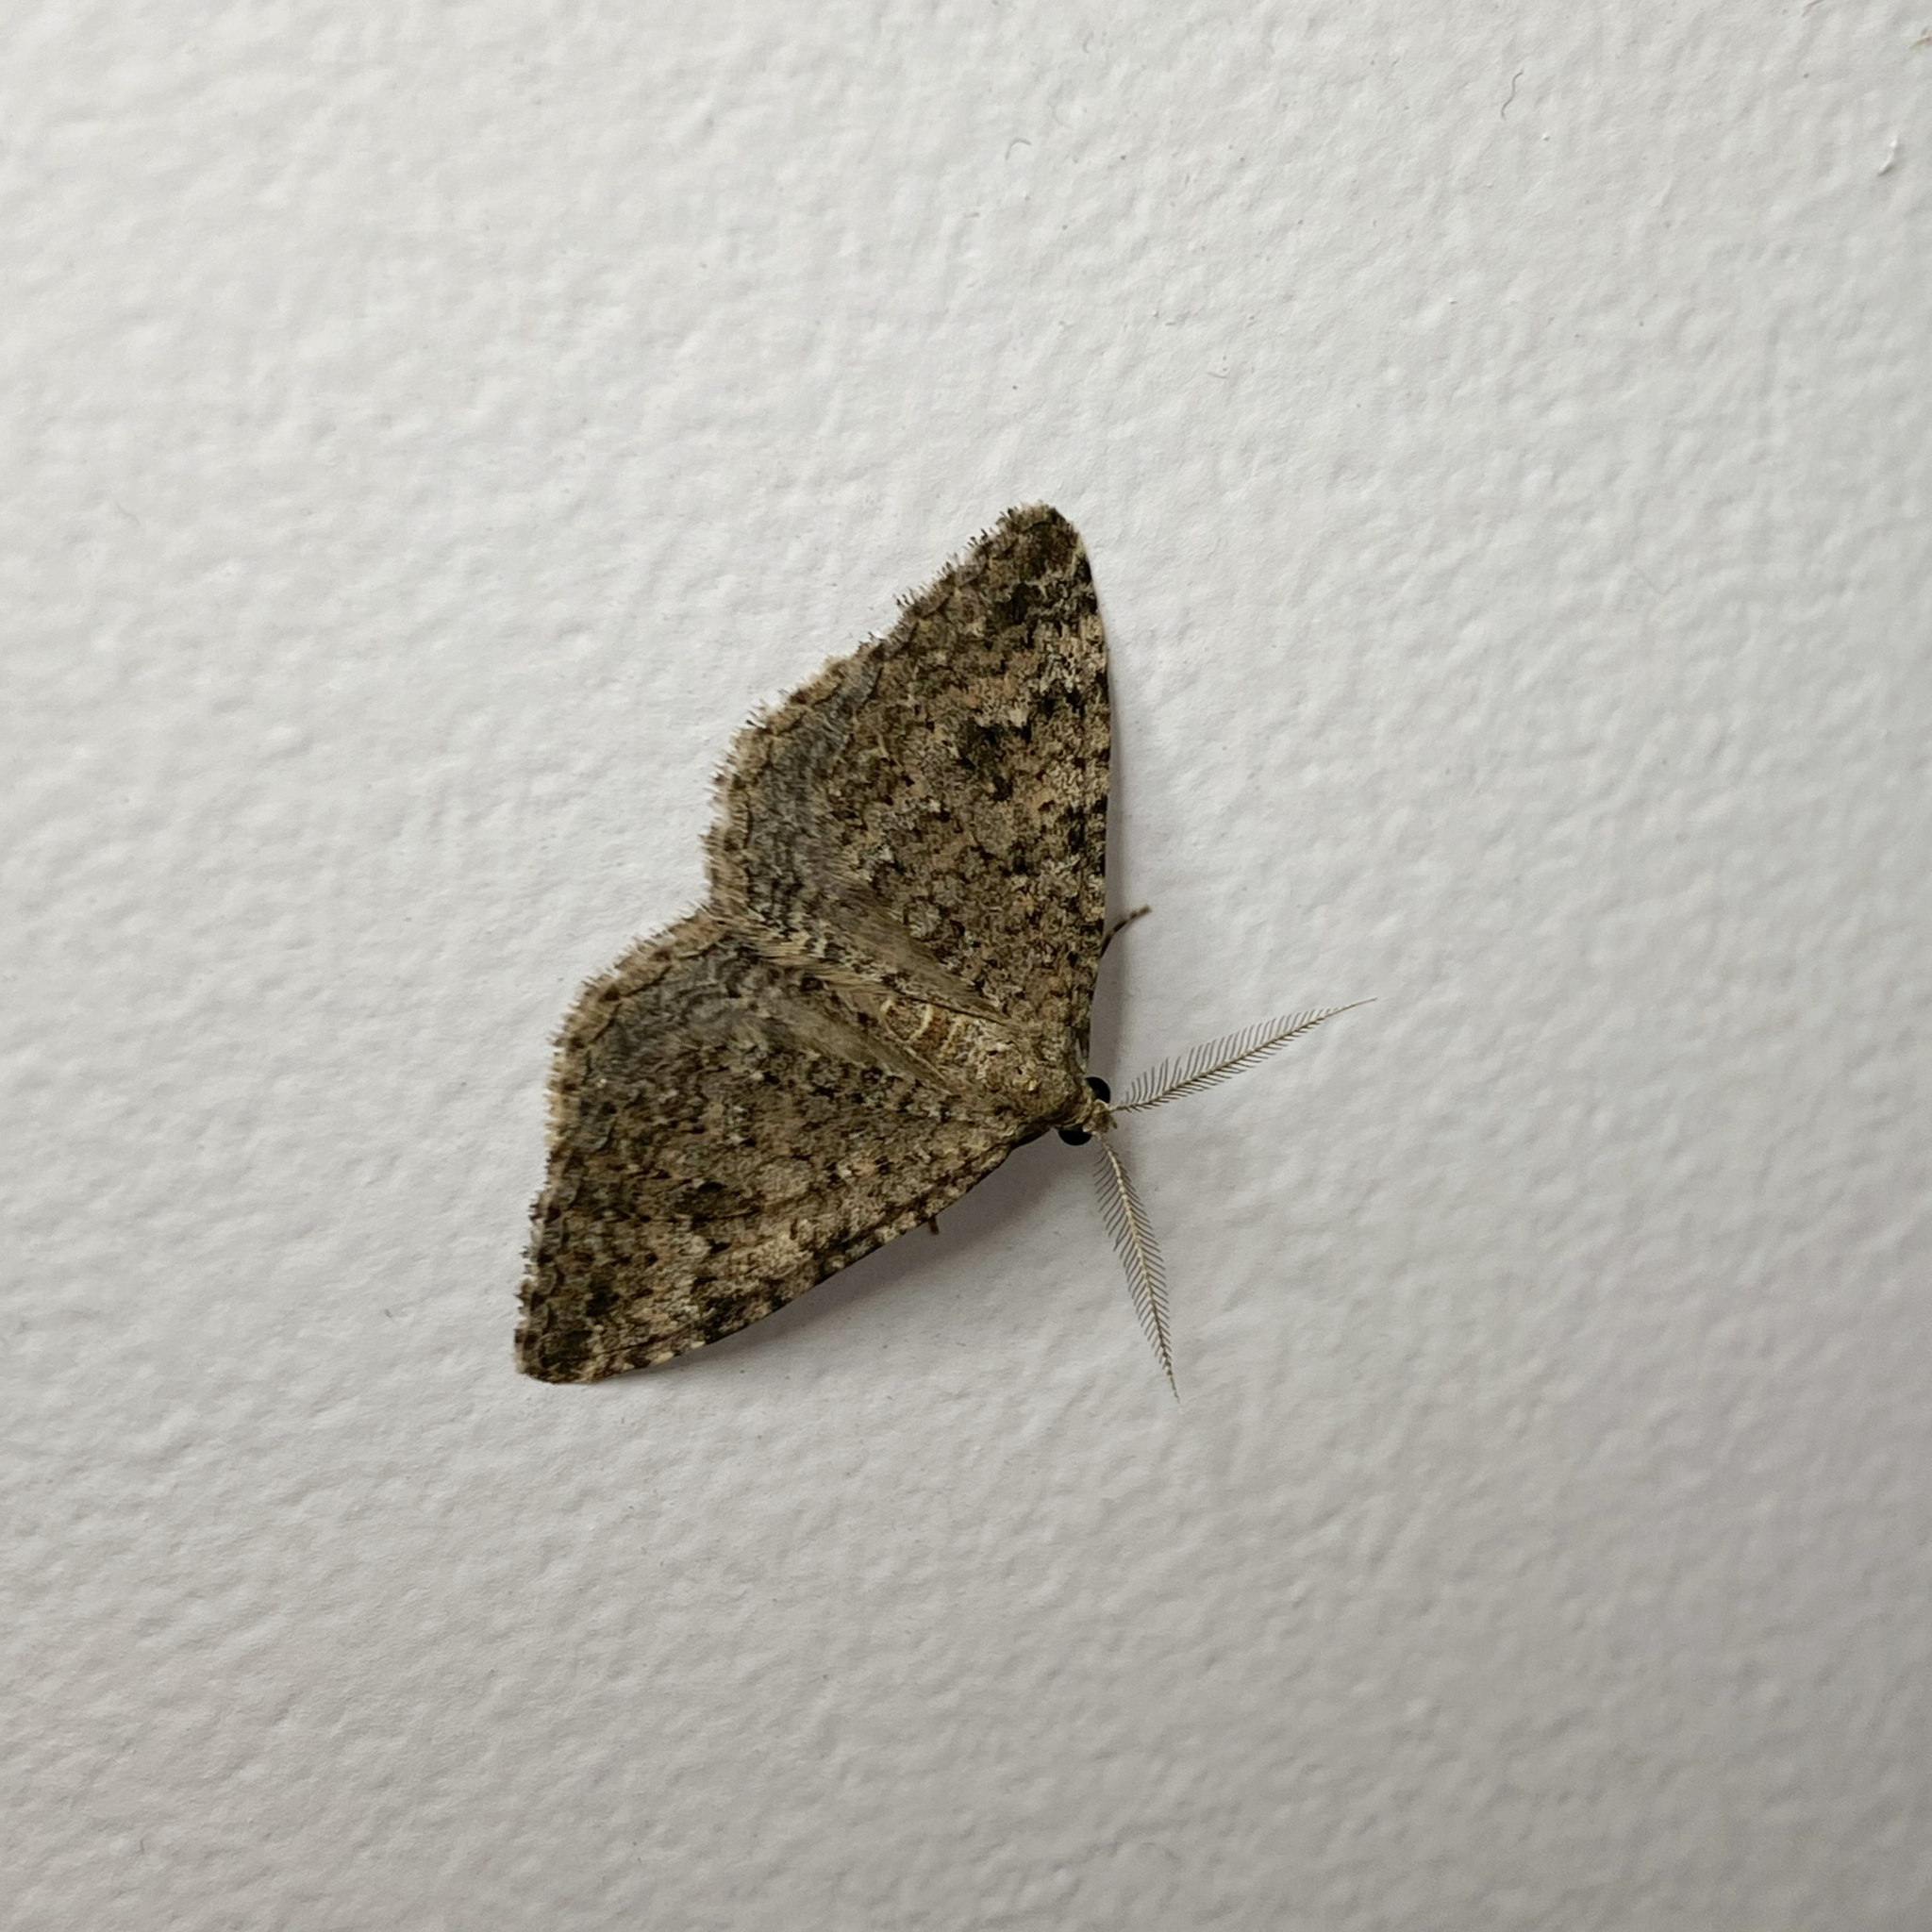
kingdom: Animalia
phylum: Arthropoda
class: Insecta
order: Lepidoptera
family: Geometridae
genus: Helastia
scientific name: Helastia corcularia
